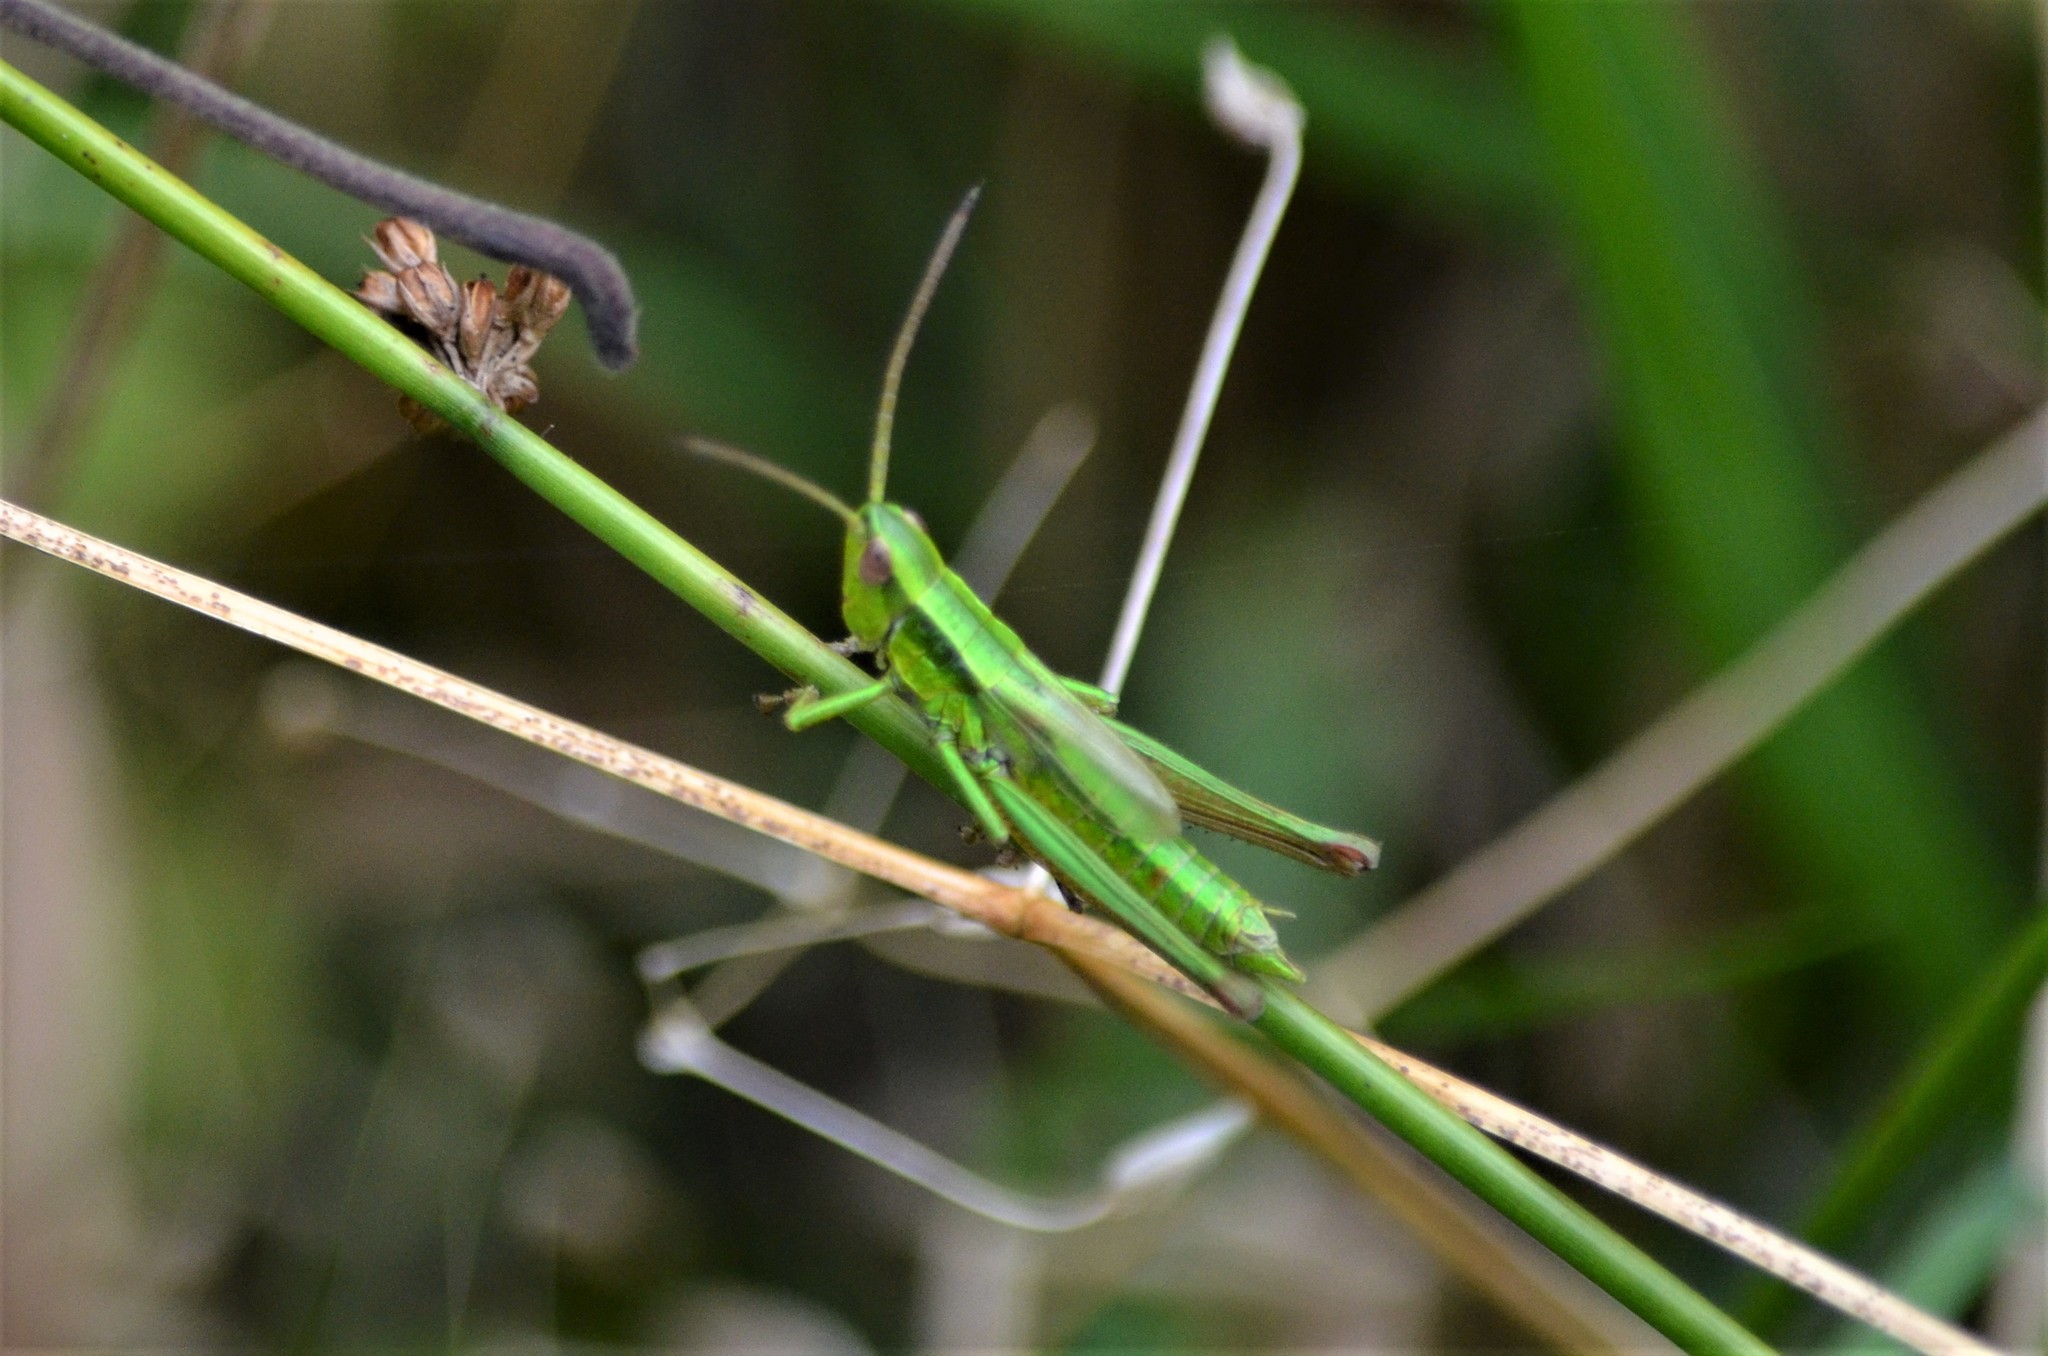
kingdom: Animalia
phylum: Arthropoda
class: Insecta
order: Orthoptera
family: Acrididae
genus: Euthystira
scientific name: Euthystira brachyptera
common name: Small gold grasshopper
